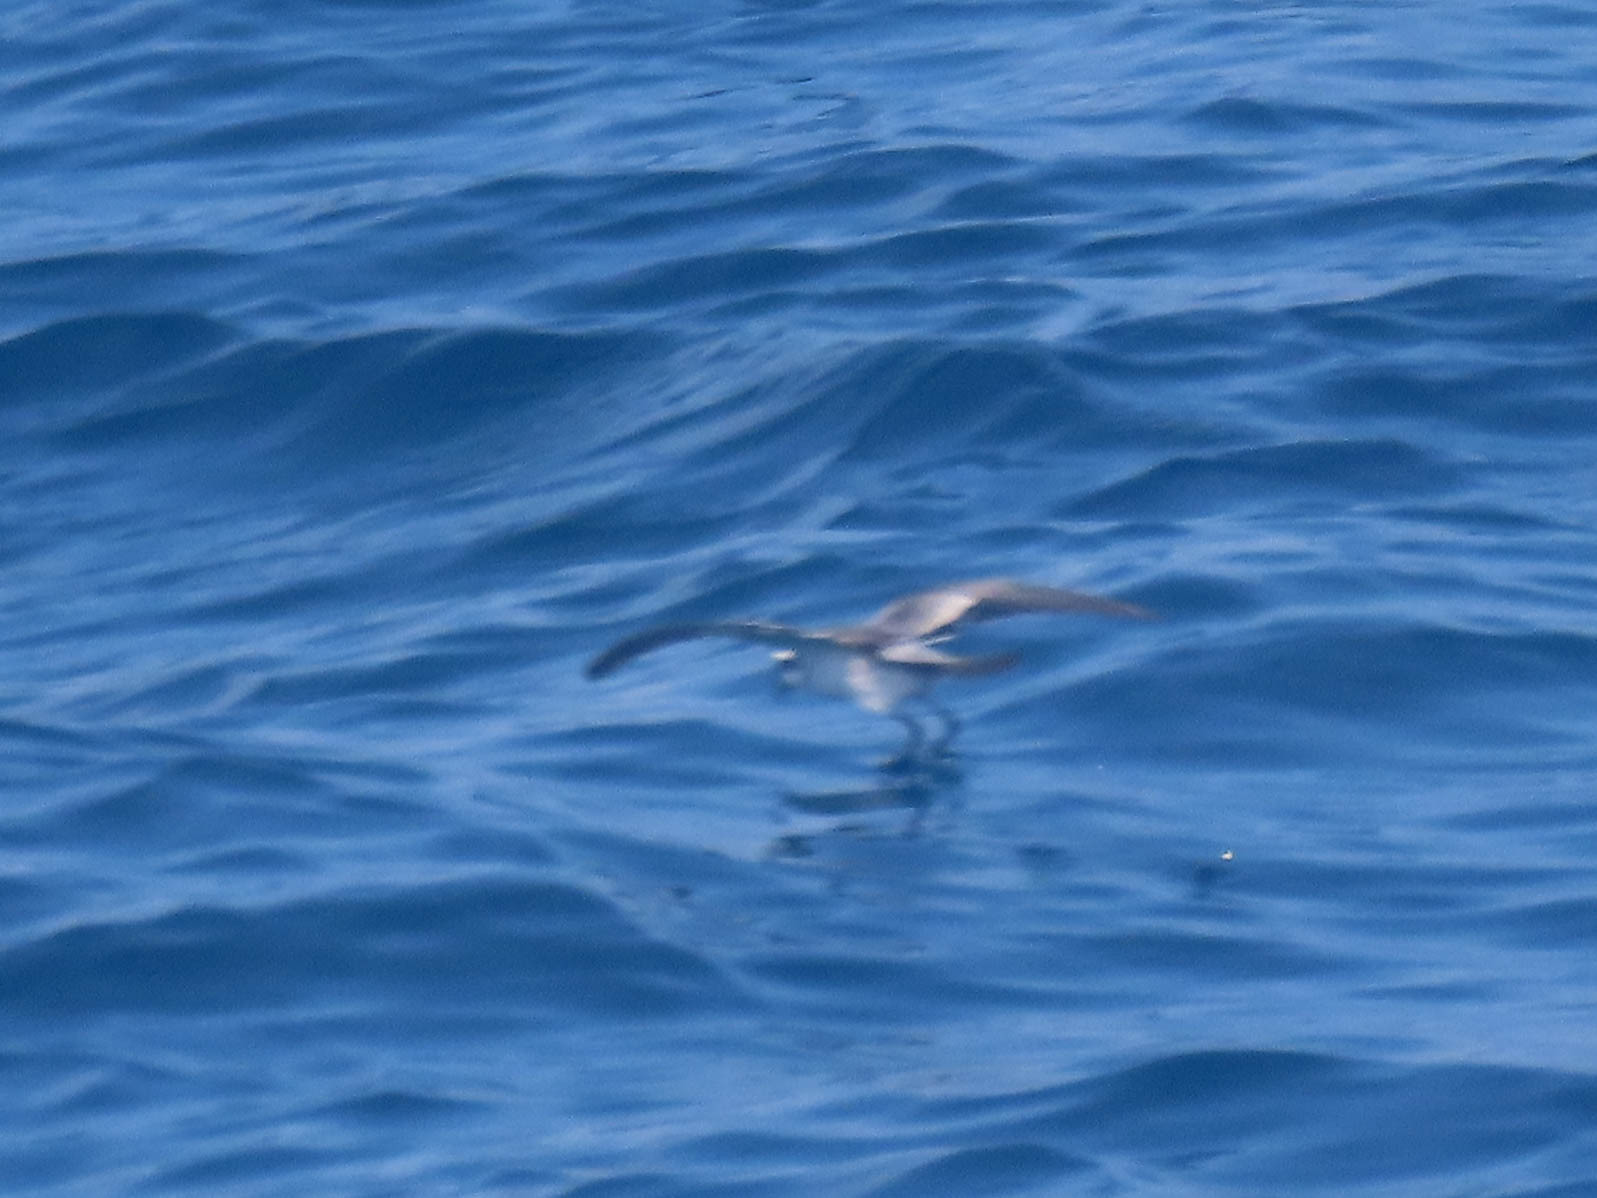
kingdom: Animalia
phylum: Chordata
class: Aves
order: Procellariiformes
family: Hydrobatidae
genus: Pelagodroma
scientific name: Pelagodroma marina
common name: White-faced storm-petrel
